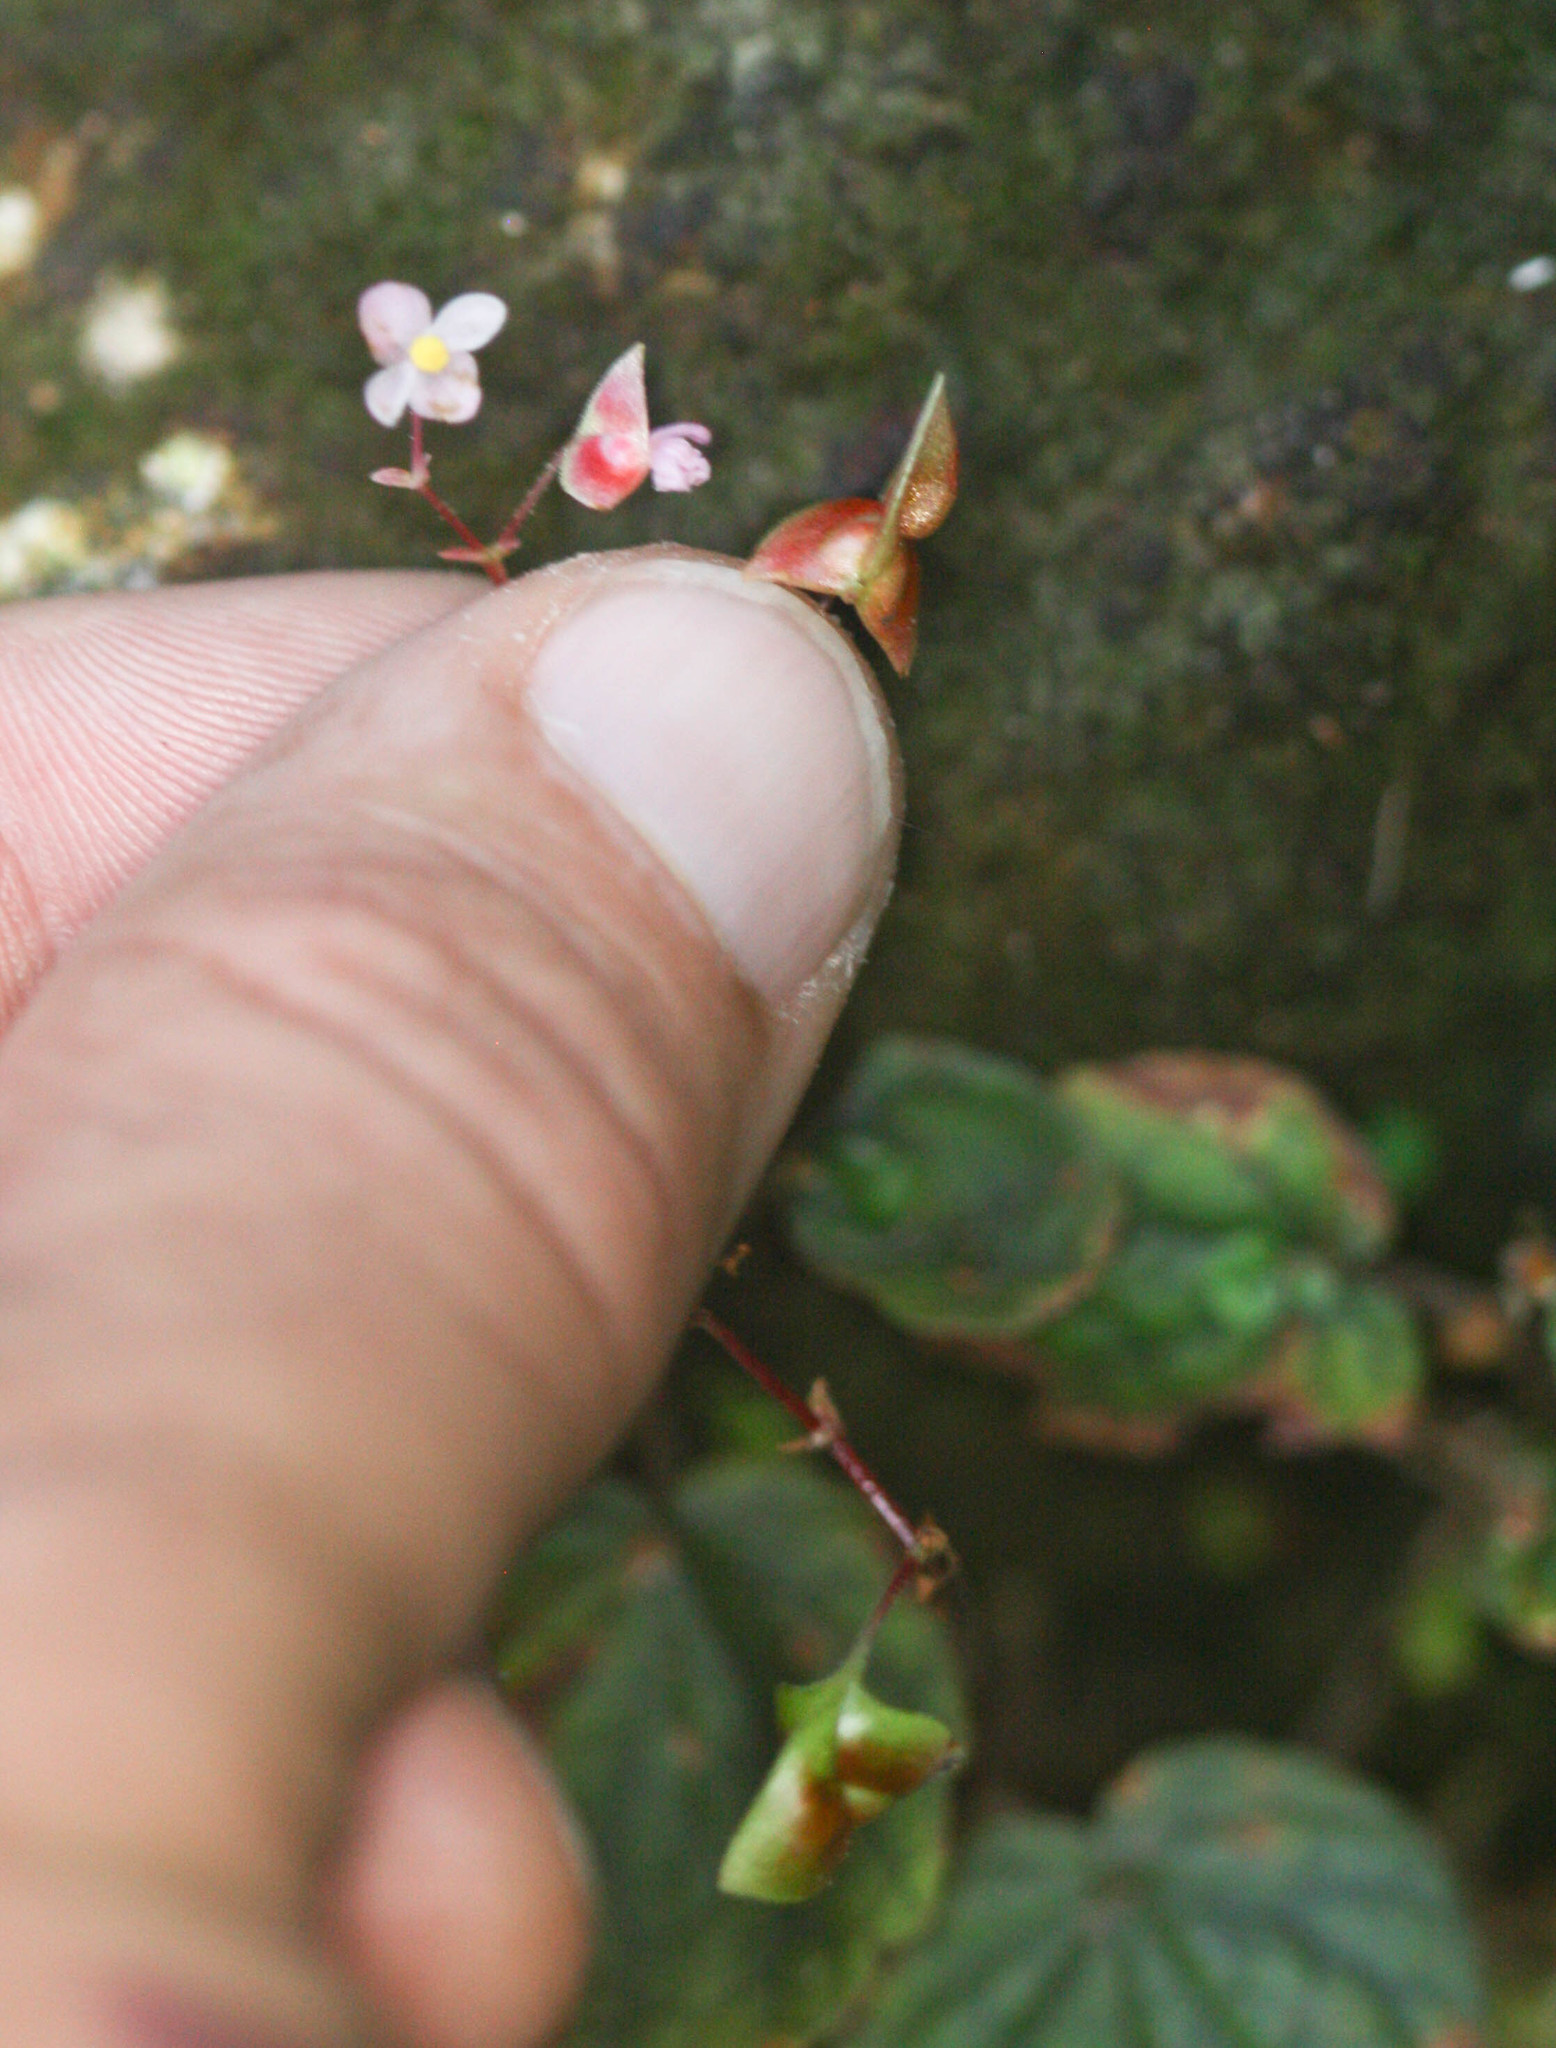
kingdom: Plantae
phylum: Tracheophyta
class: Magnoliopsida
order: Cucurbitales
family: Begoniaceae
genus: Begonia
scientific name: Begonia sinuata
